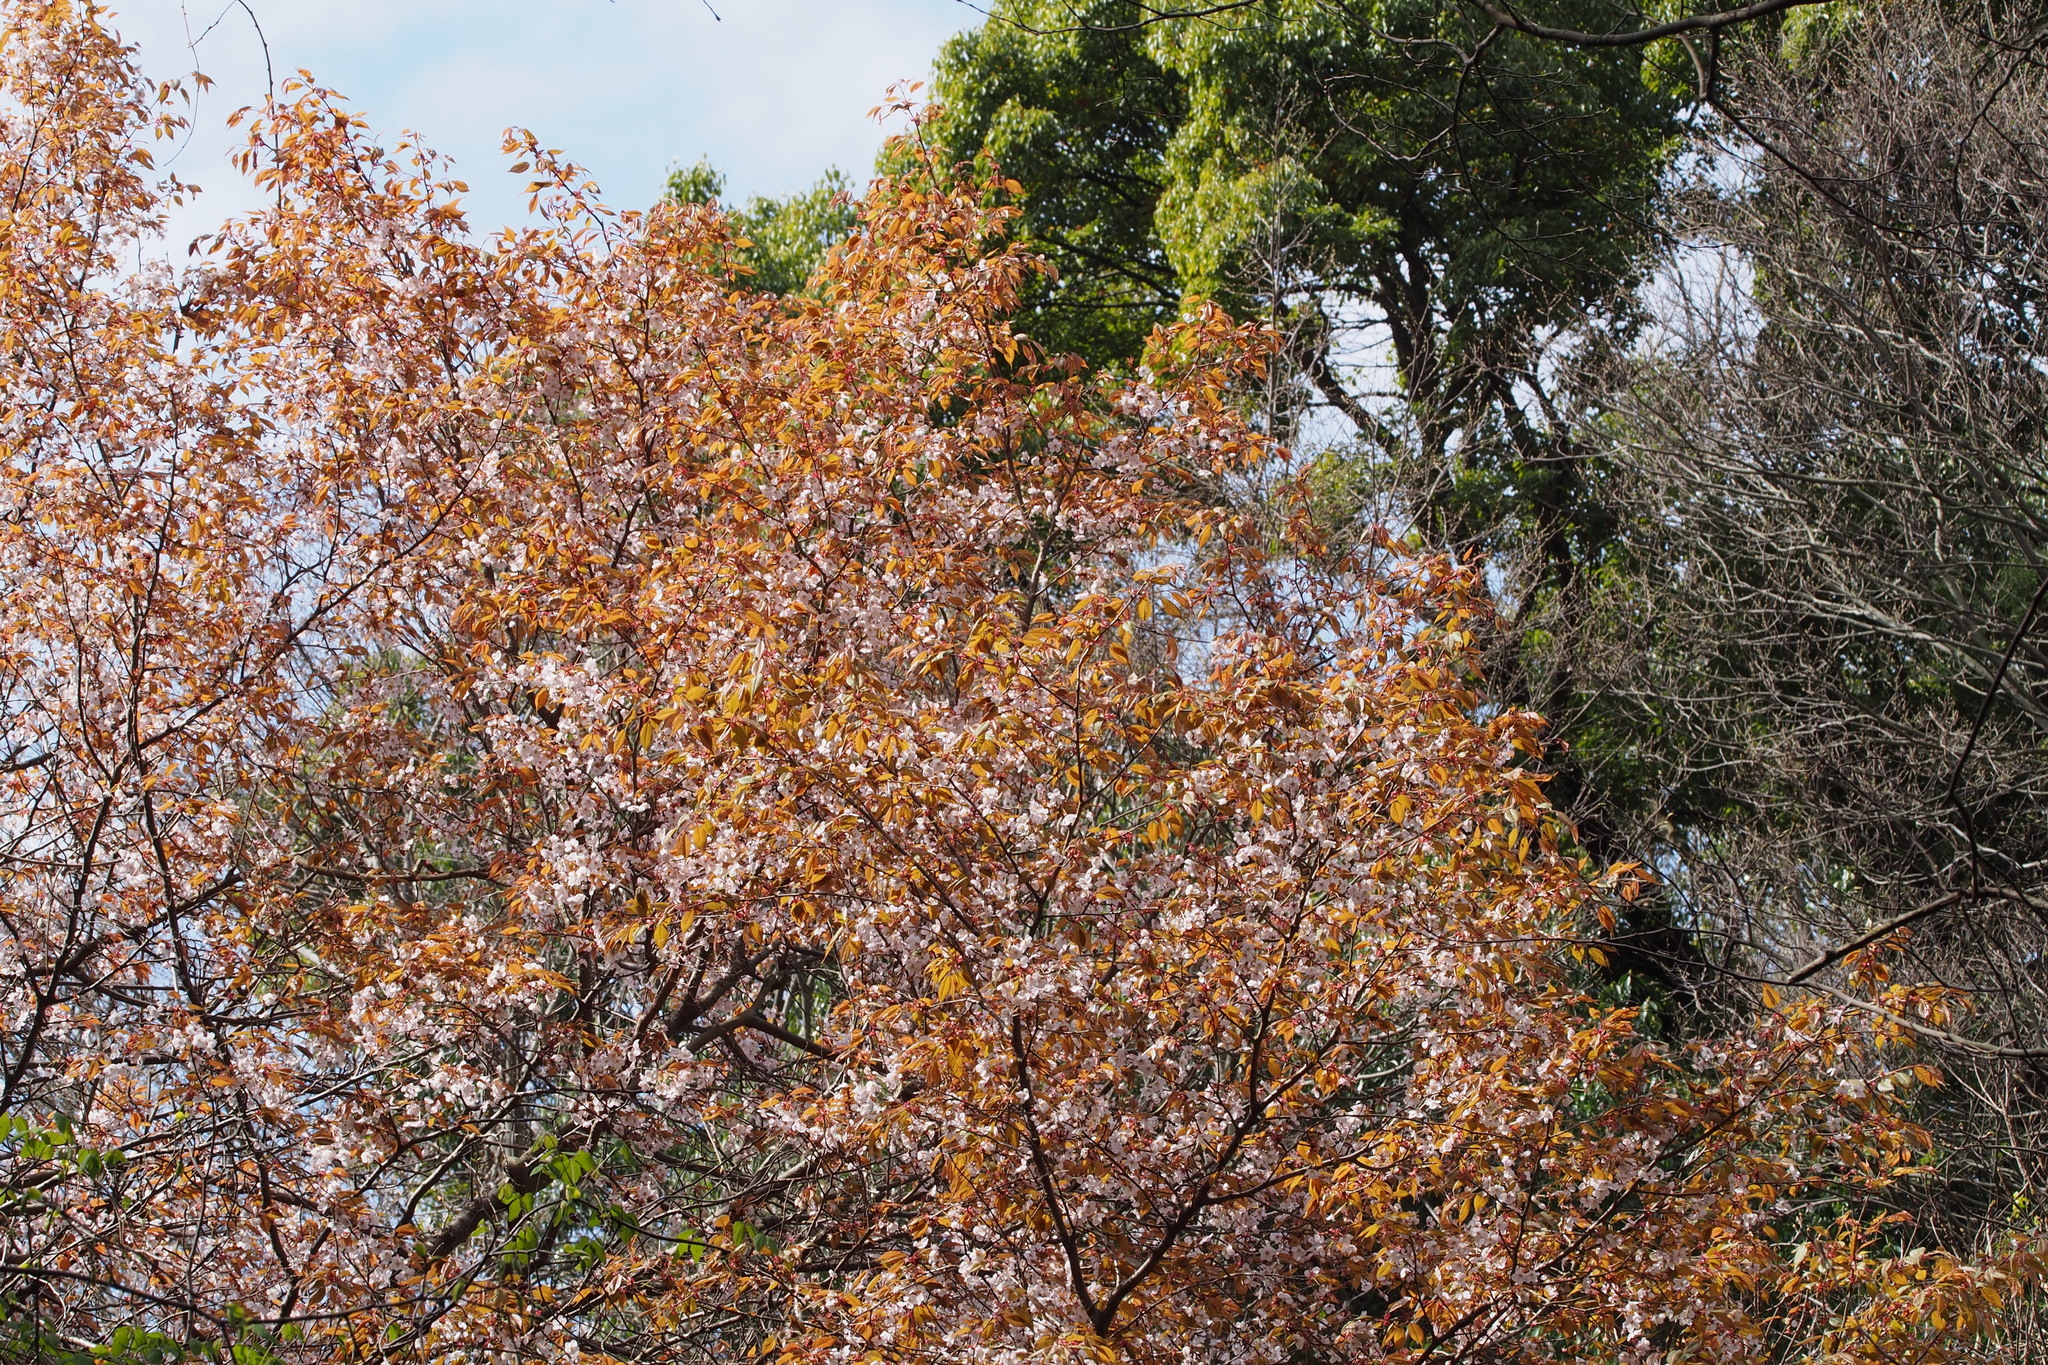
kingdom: Plantae
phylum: Tracheophyta
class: Magnoliopsida
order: Rosales
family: Rosaceae
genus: Prunus
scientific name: Prunus jamasakura
